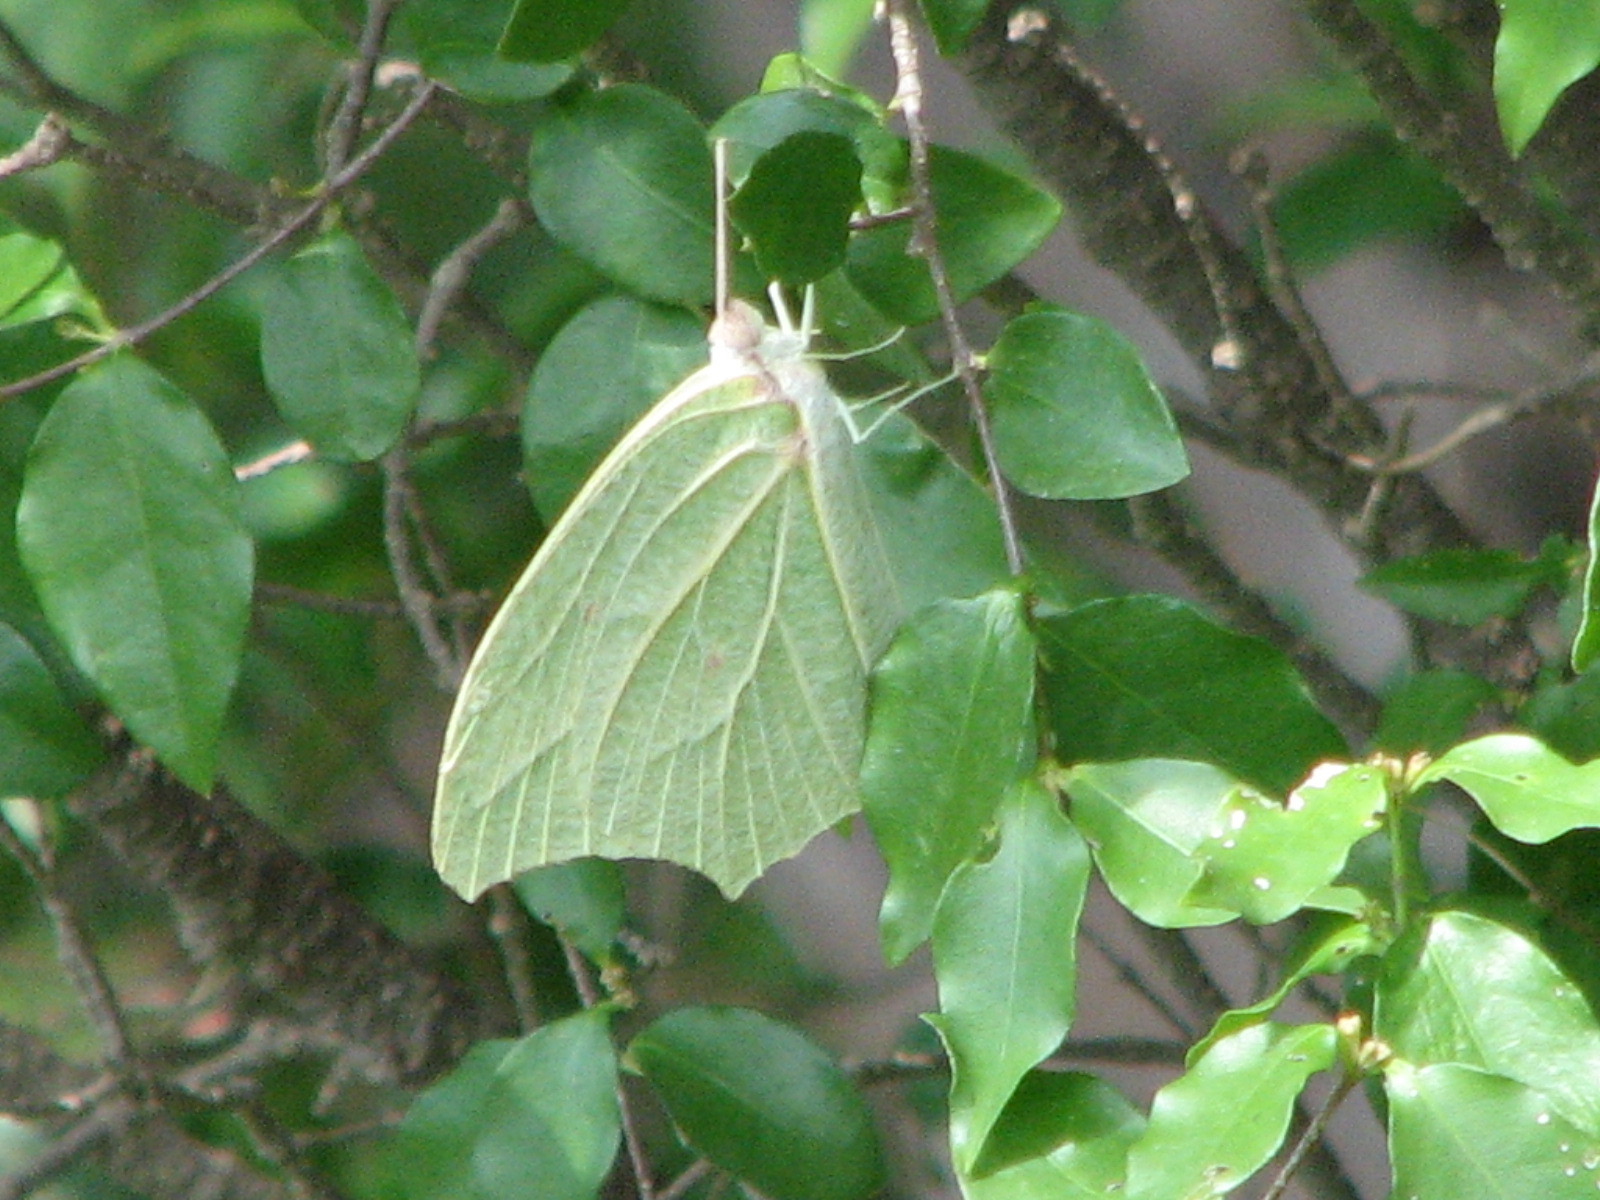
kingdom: Animalia
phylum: Arthropoda
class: Insecta
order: Lepidoptera
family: Pieridae
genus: Anteos
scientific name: Anteos clorinde
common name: White angled sulphur
